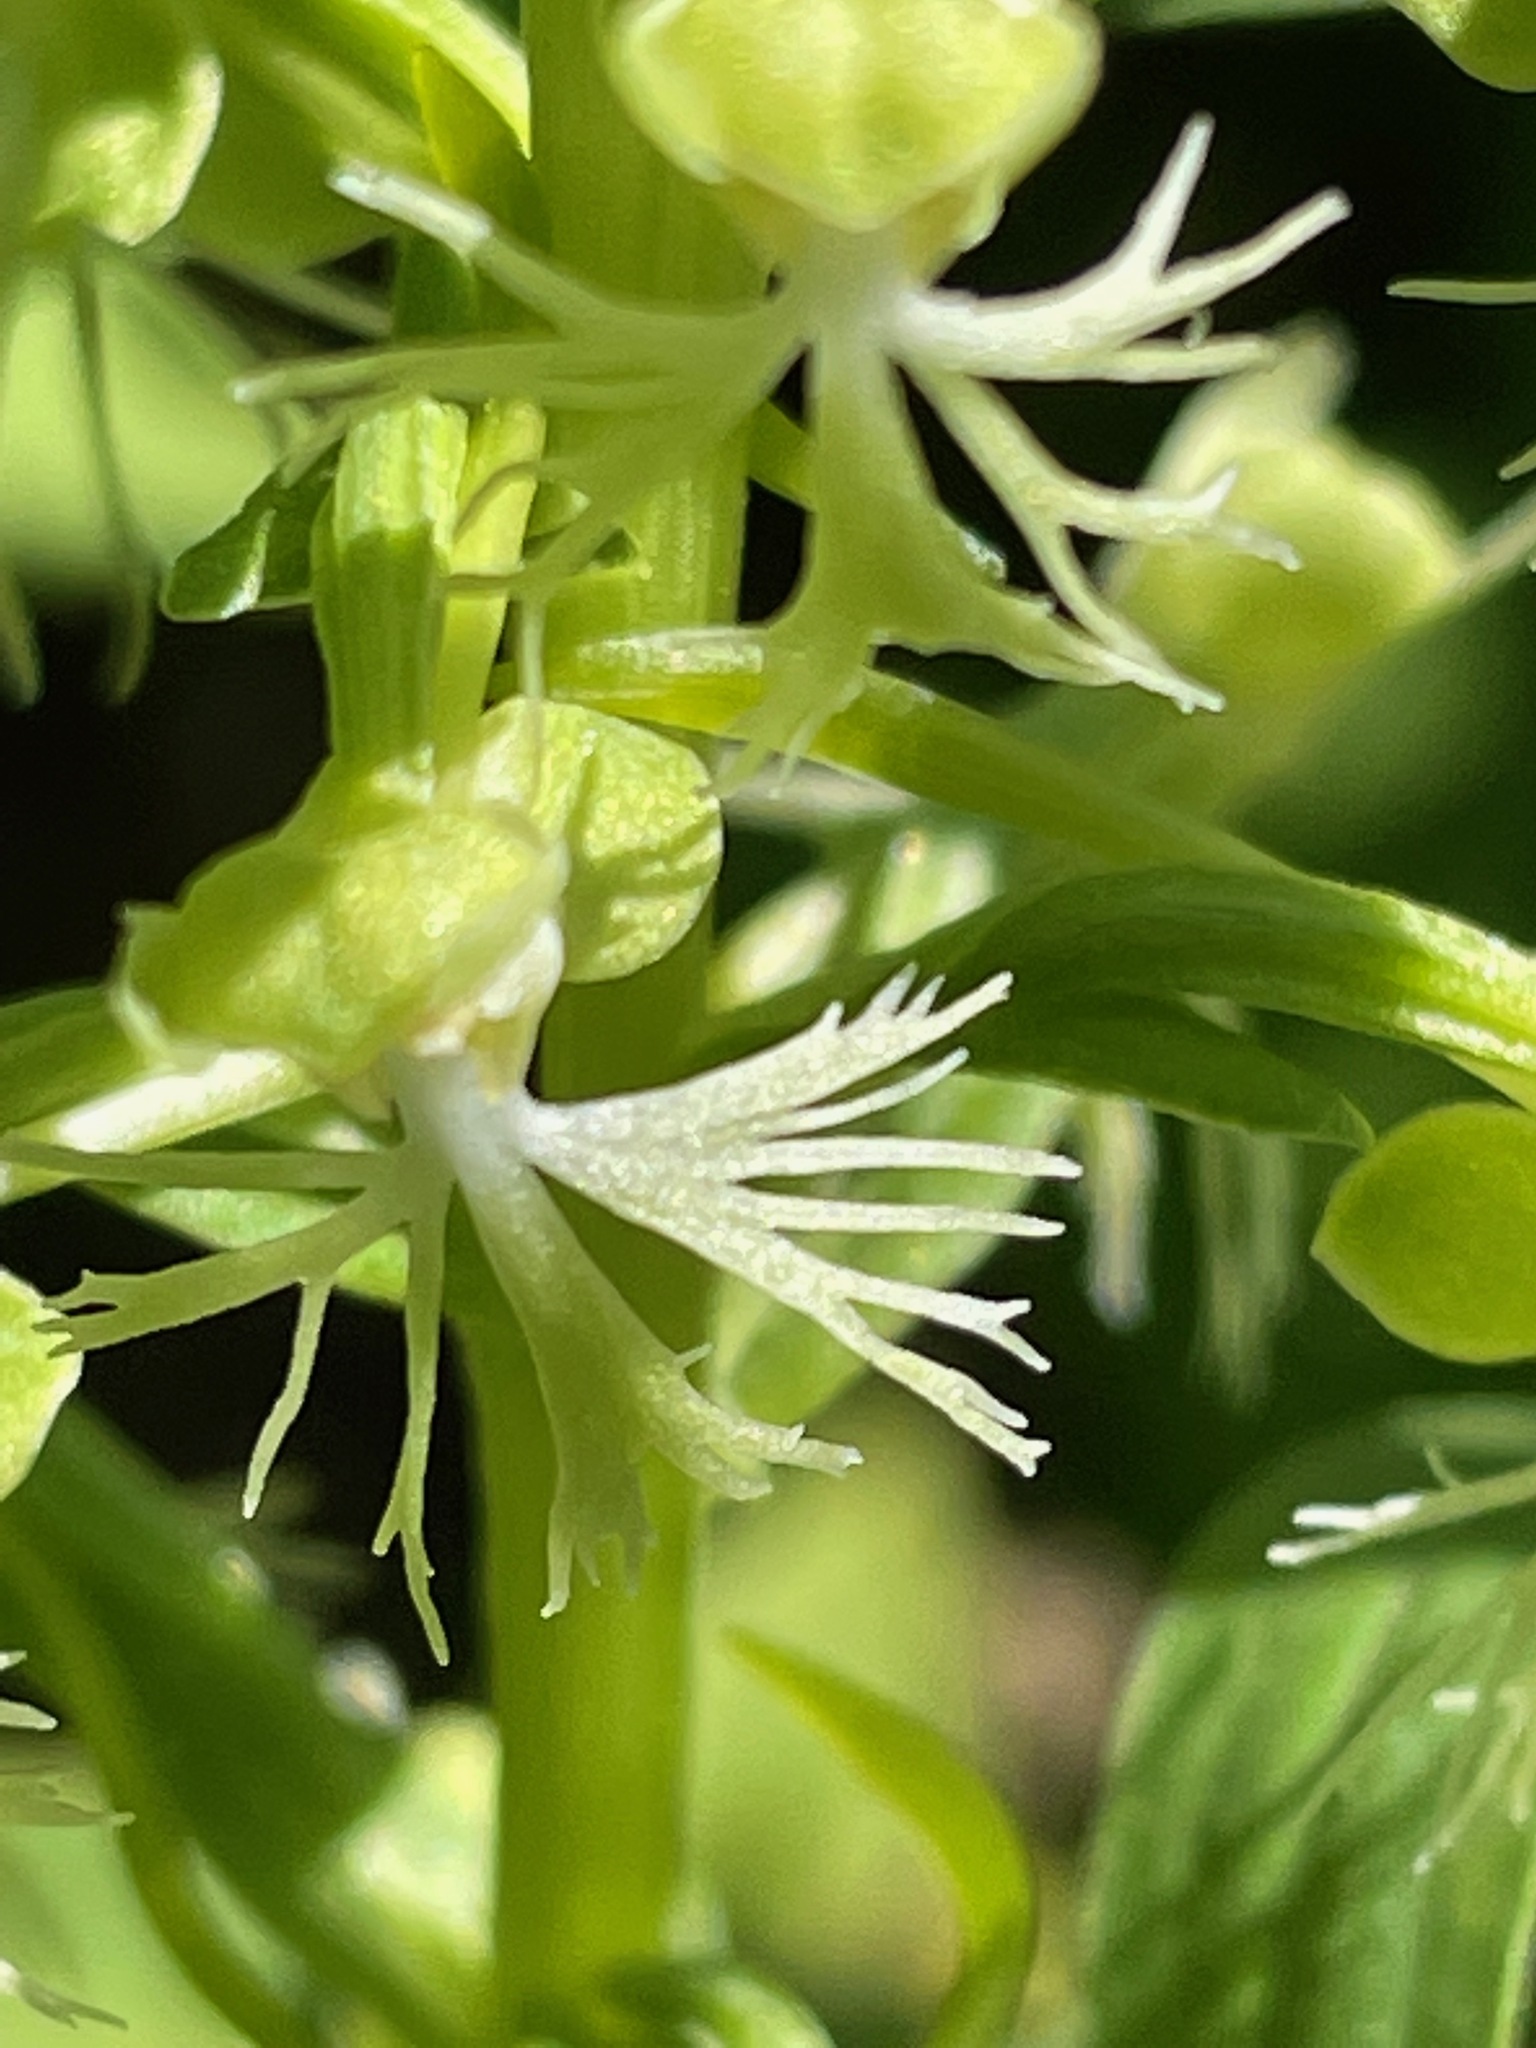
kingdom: Plantae
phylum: Tracheophyta
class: Liliopsida
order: Asparagales
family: Orchidaceae
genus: Platanthera
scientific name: Platanthera lacera
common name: Green fringed orchid
